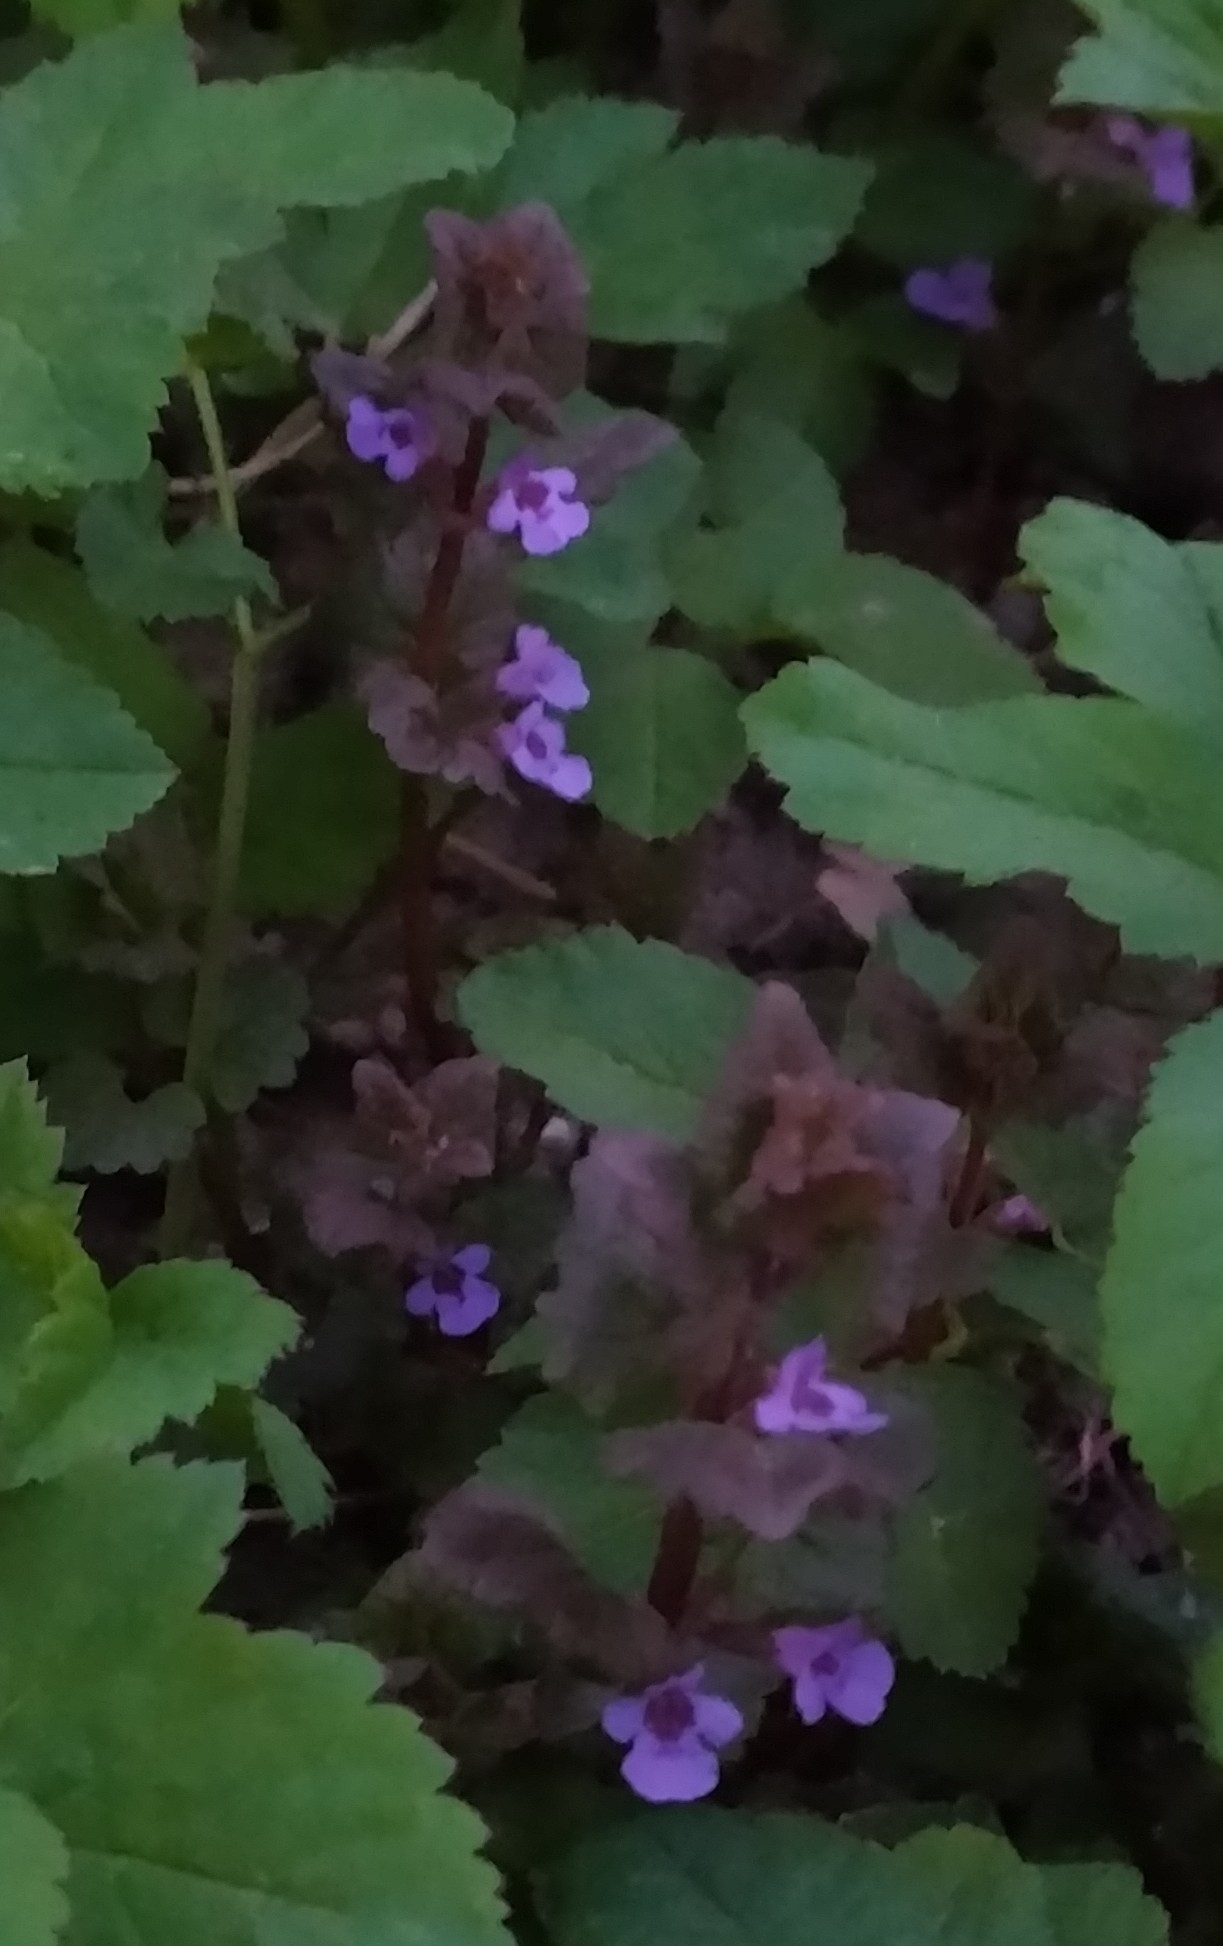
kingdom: Plantae
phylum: Tracheophyta
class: Magnoliopsida
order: Lamiales
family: Lamiaceae
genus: Glechoma
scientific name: Glechoma hederacea
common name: Ground ivy
